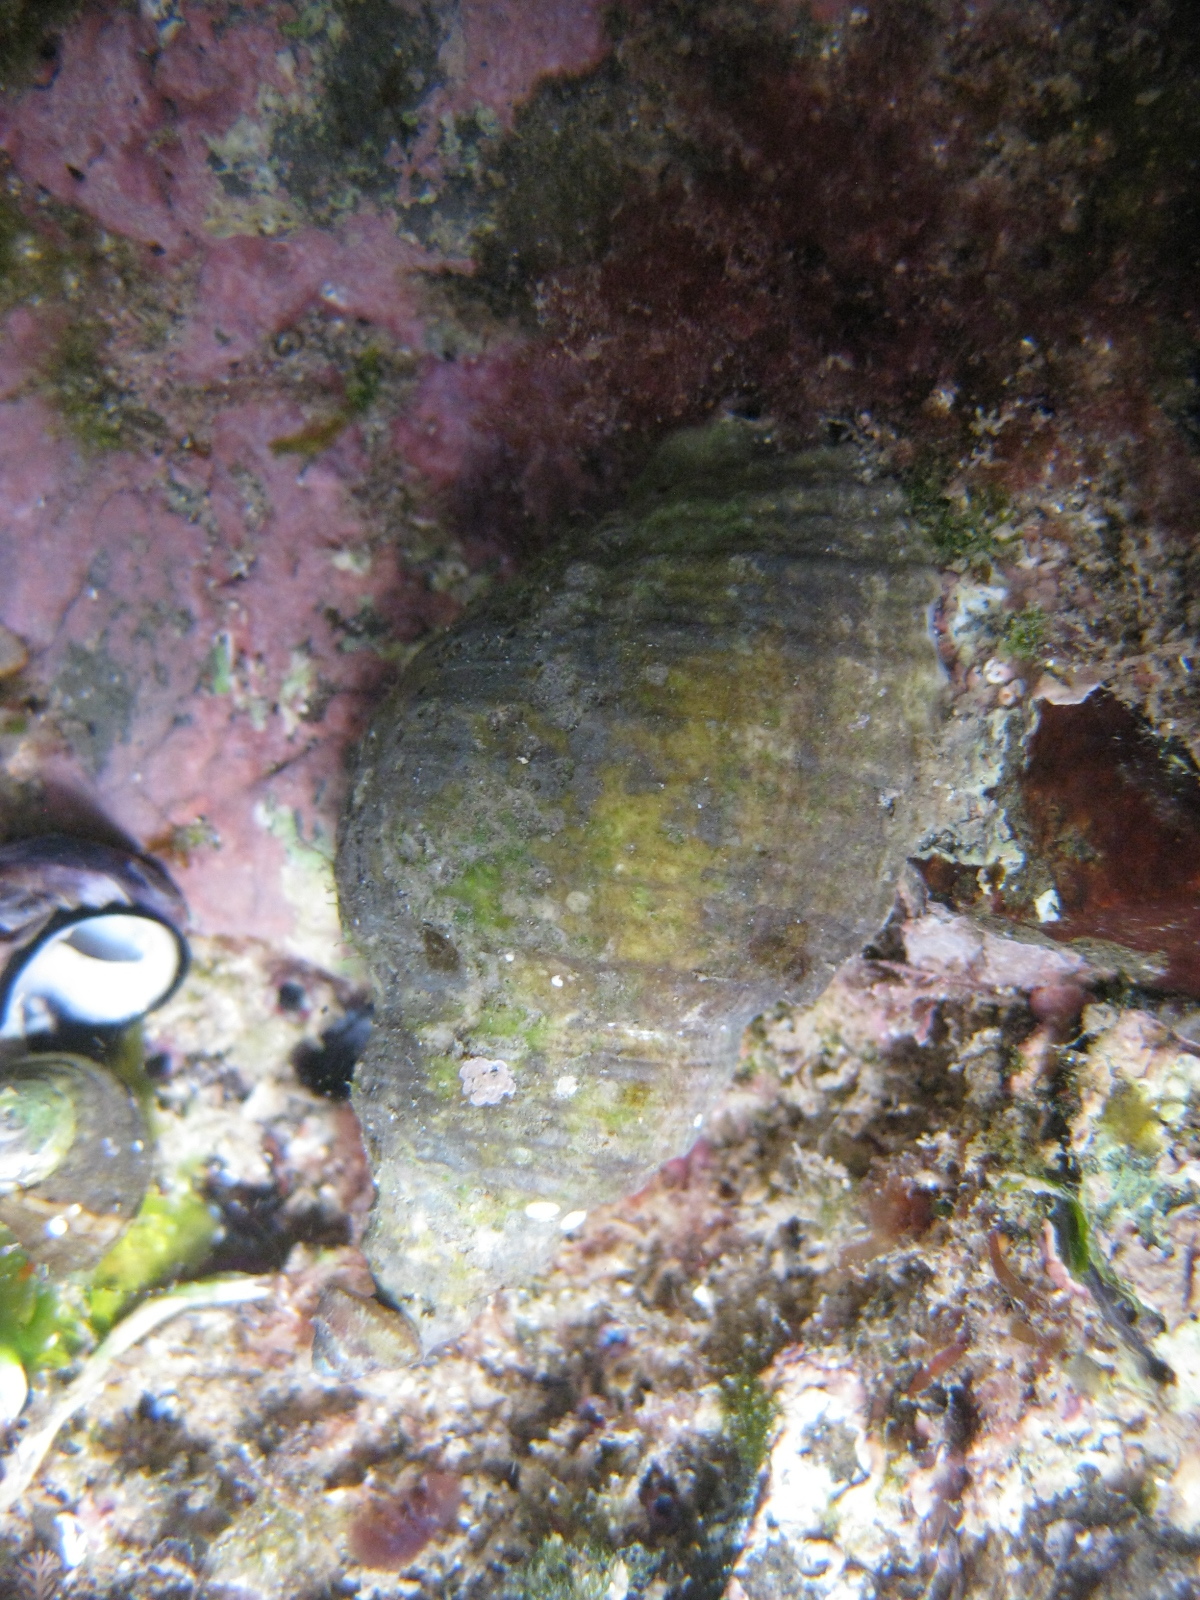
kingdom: Animalia
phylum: Mollusca
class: Gastropoda
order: Neogastropoda
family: Muricidae
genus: Dicathais
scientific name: Dicathais orbita
